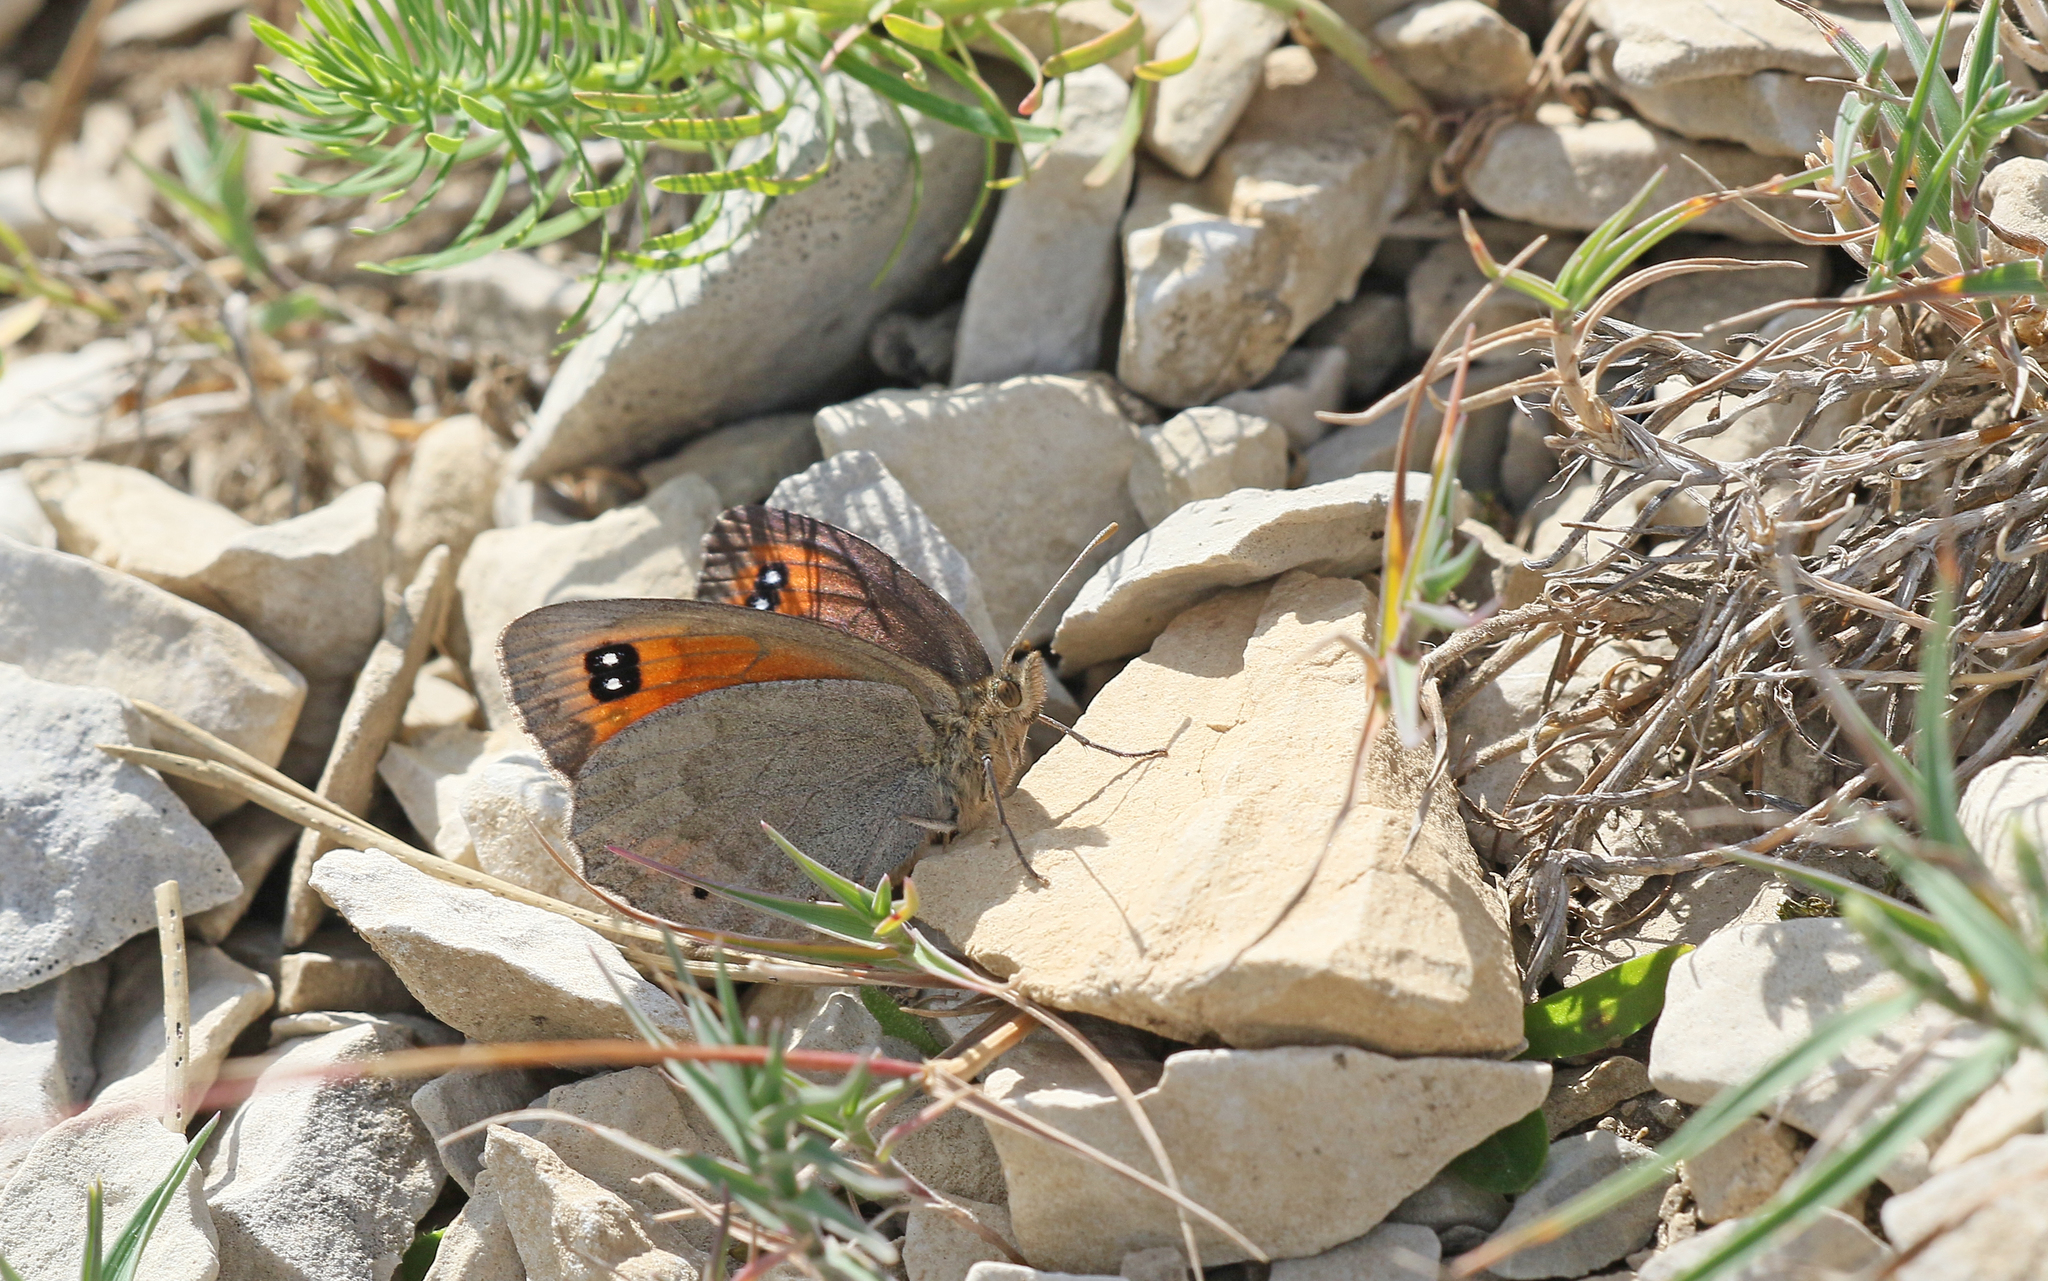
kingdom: Animalia
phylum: Arthropoda
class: Insecta
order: Lepidoptera
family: Nymphalidae
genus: Erebia
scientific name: Erebia scipio
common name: Larche ringlet
